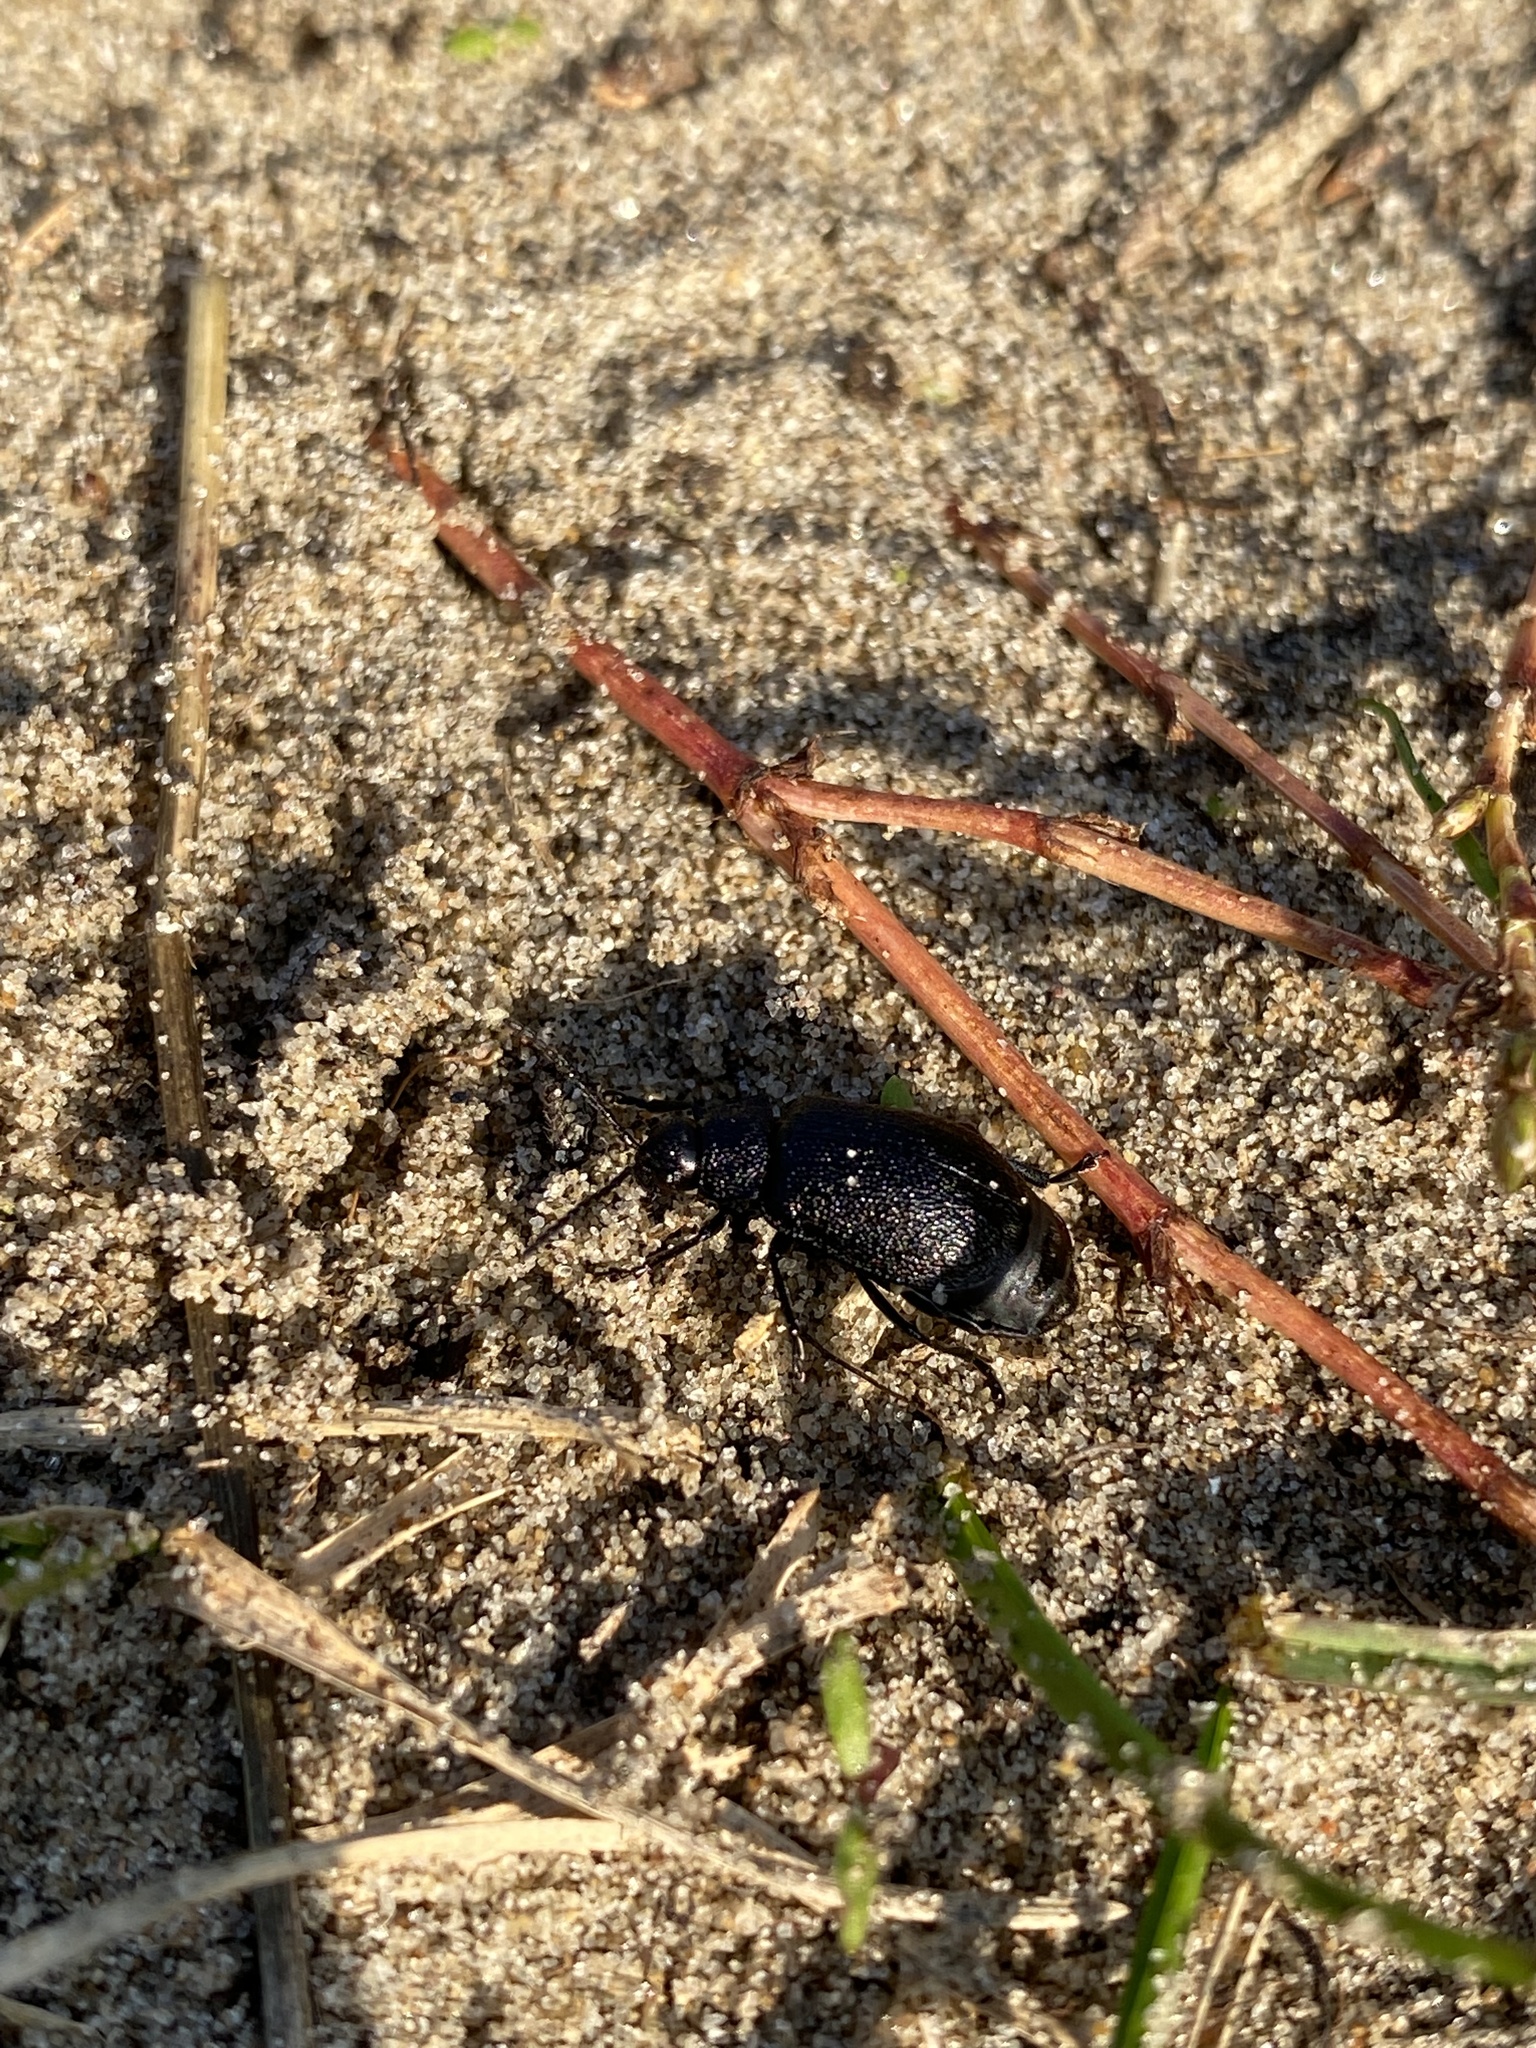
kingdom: Animalia
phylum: Arthropoda
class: Insecta
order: Coleoptera
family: Chrysomelidae
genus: Galeruca
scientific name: Galeruca tanaceti
